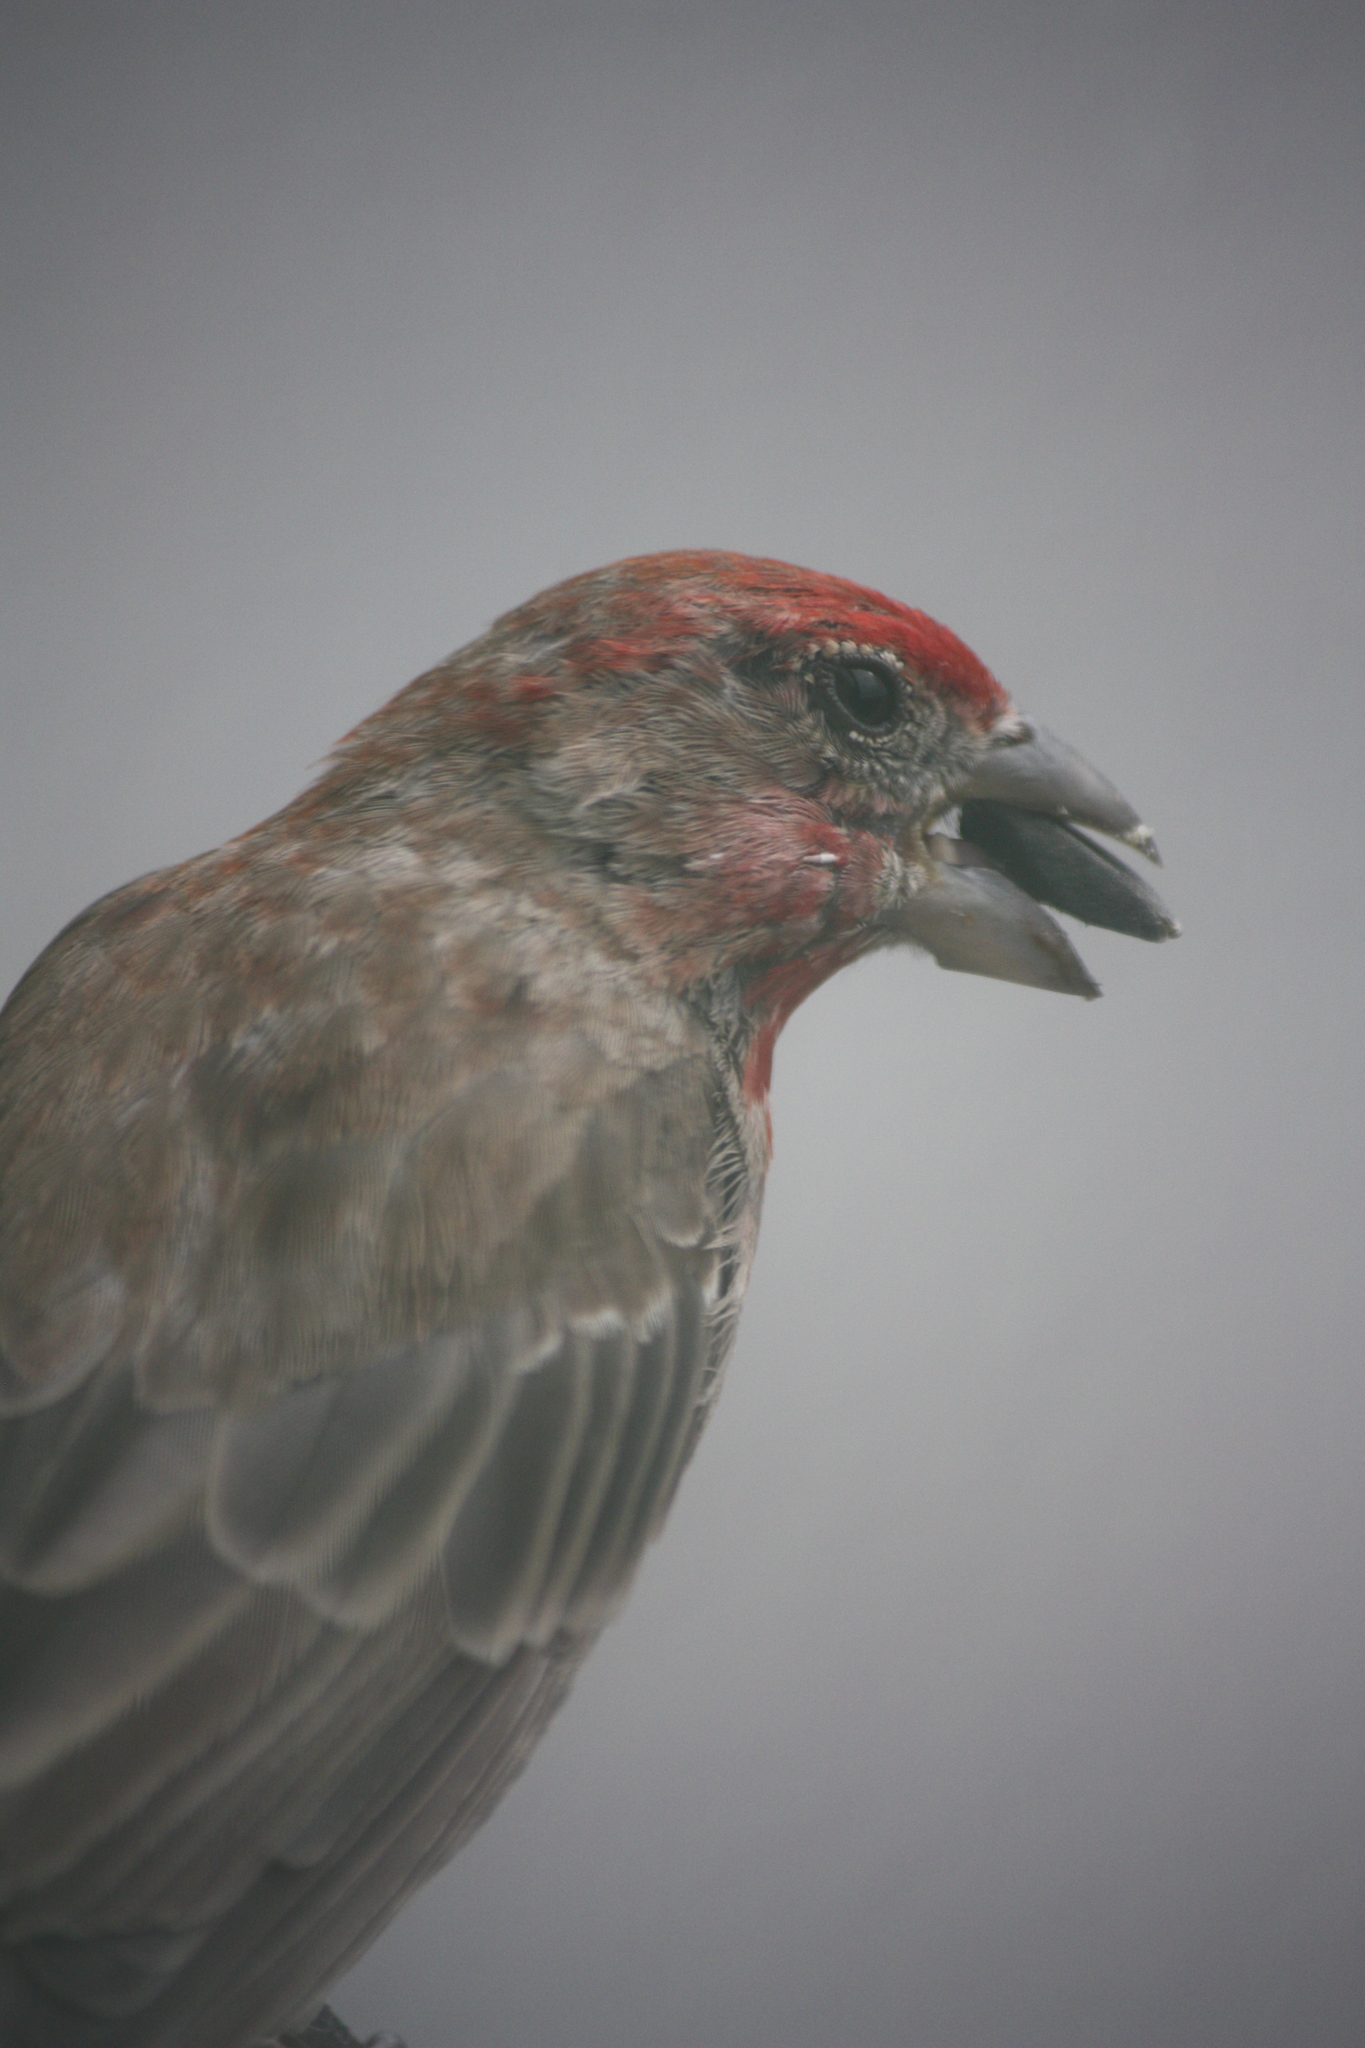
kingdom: Animalia
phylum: Chordata
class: Aves
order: Passeriformes
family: Fringillidae
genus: Haemorhous
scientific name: Haemorhous mexicanus
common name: House finch
